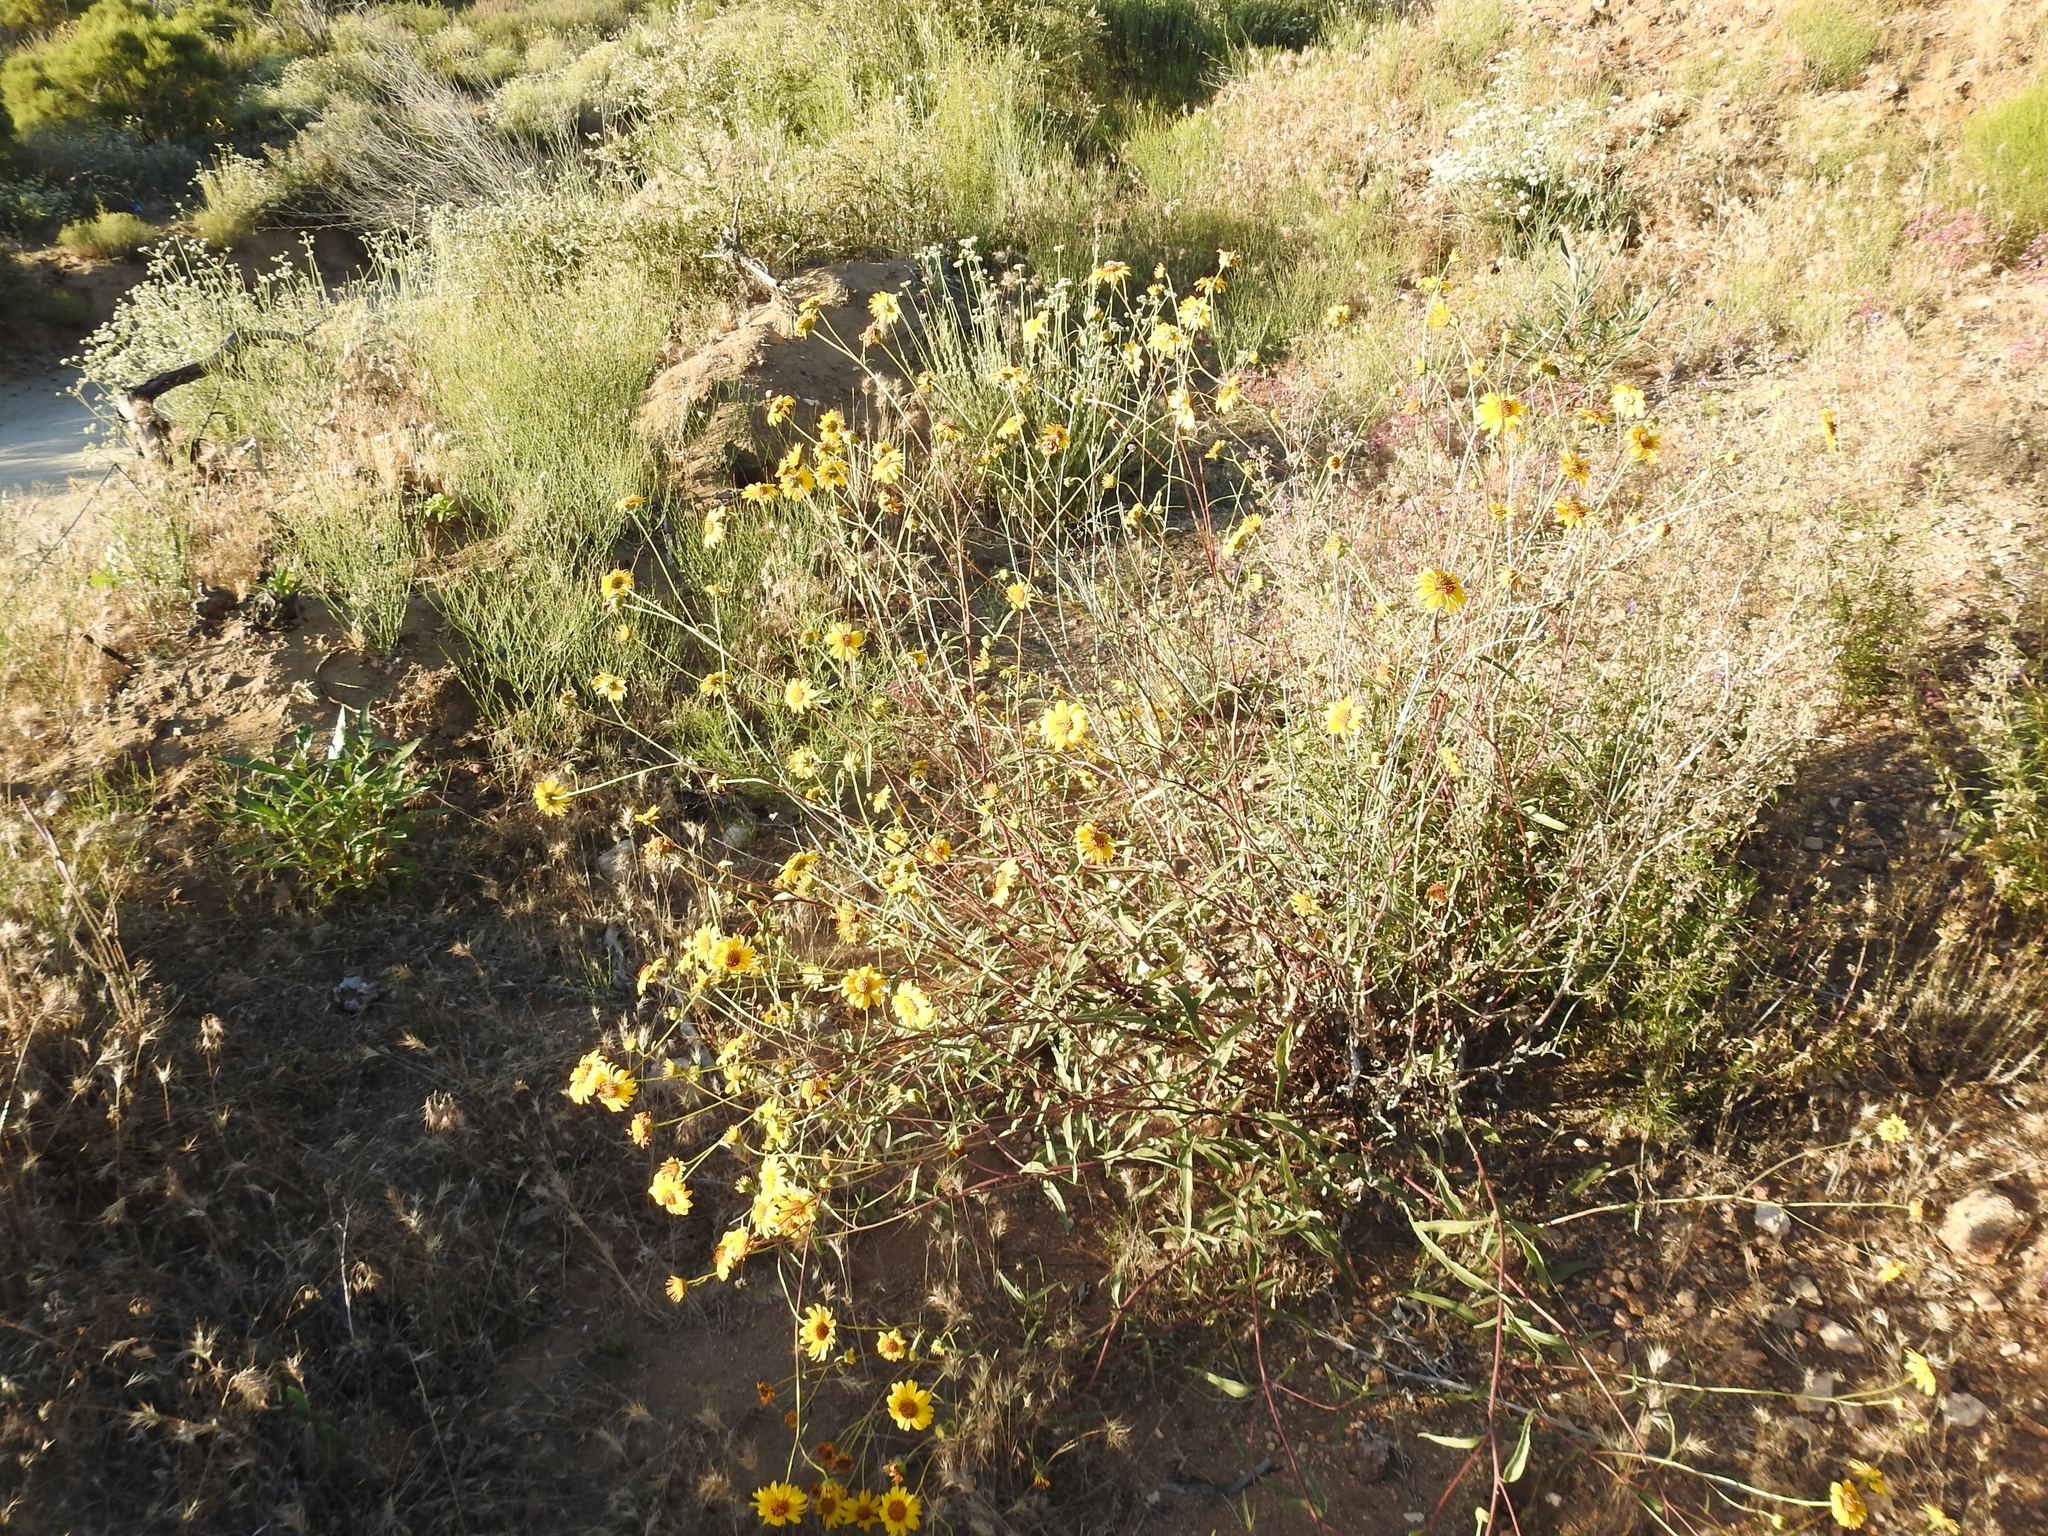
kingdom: Plantae
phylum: Tracheophyta
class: Magnoliopsida
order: Asterales
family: Asteraceae
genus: Helianthus
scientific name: Helianthus gracilentus
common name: Slender sunflower
